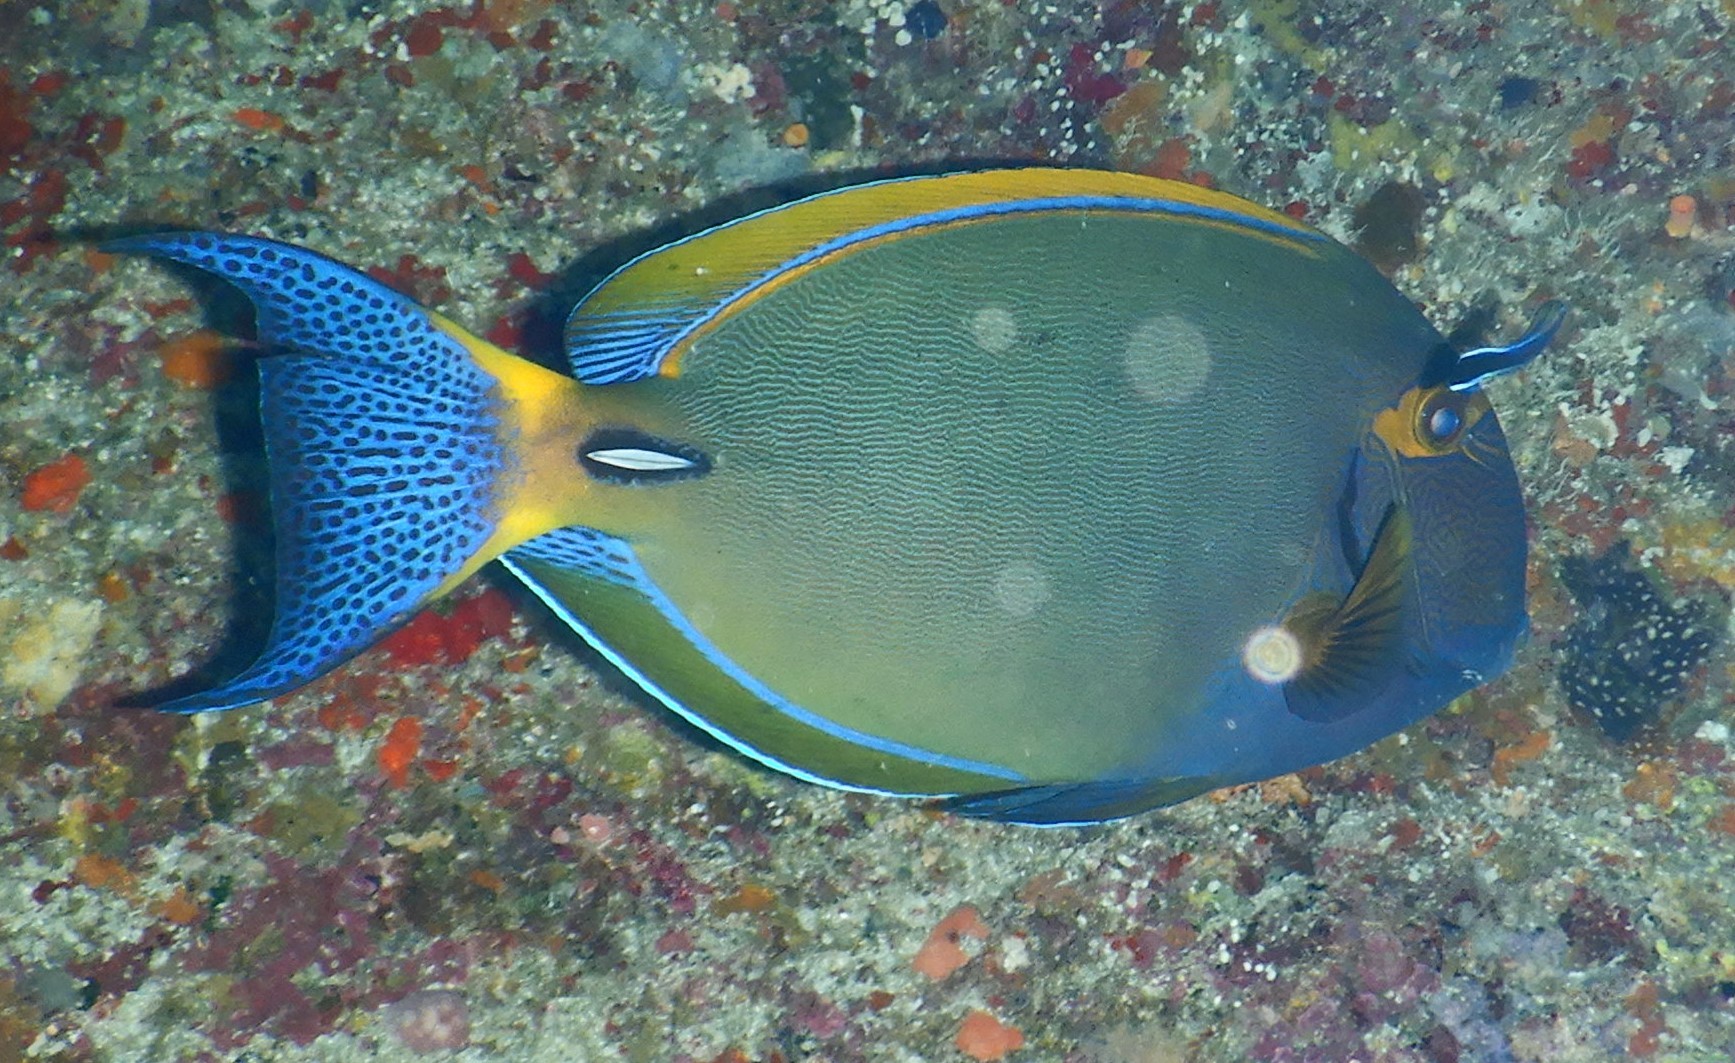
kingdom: Animalia
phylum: Chordata
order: Perciformes
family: Acanthuridae
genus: Acanthurus
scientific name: Acanthurus dussumieri
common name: Dussumier's surgeonfish
